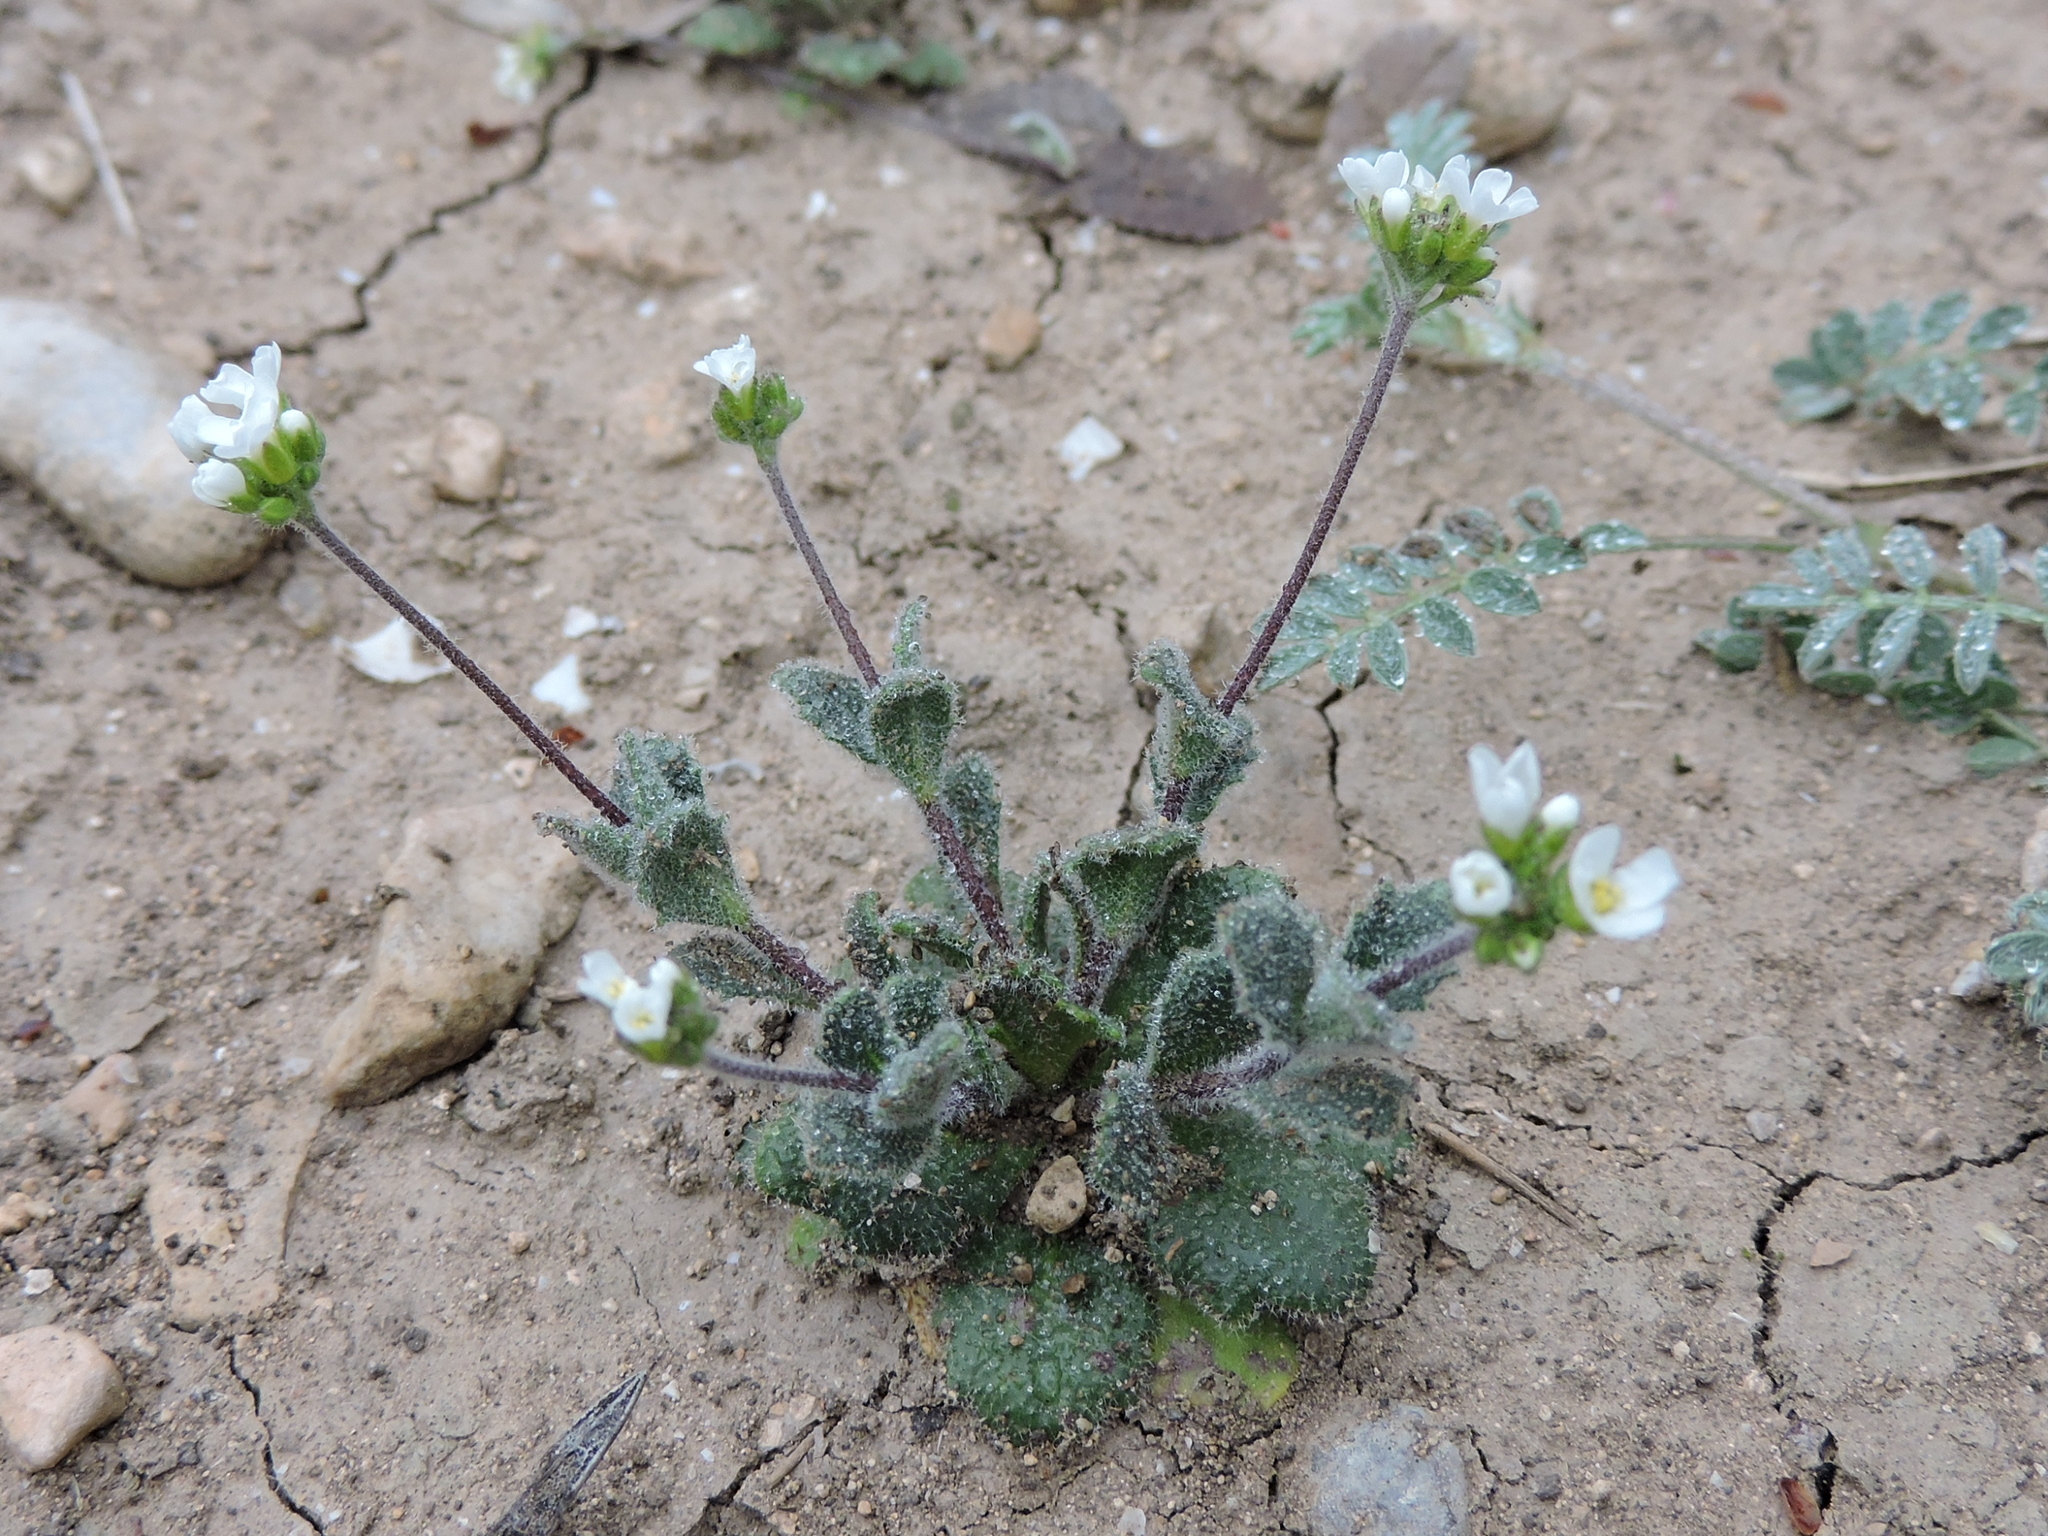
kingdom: Plantae
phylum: Tracheophyta
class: Magnoliopsida
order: Brassicales
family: Brassicaceae
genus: Tomostima
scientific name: Tomostima cuneifolia
